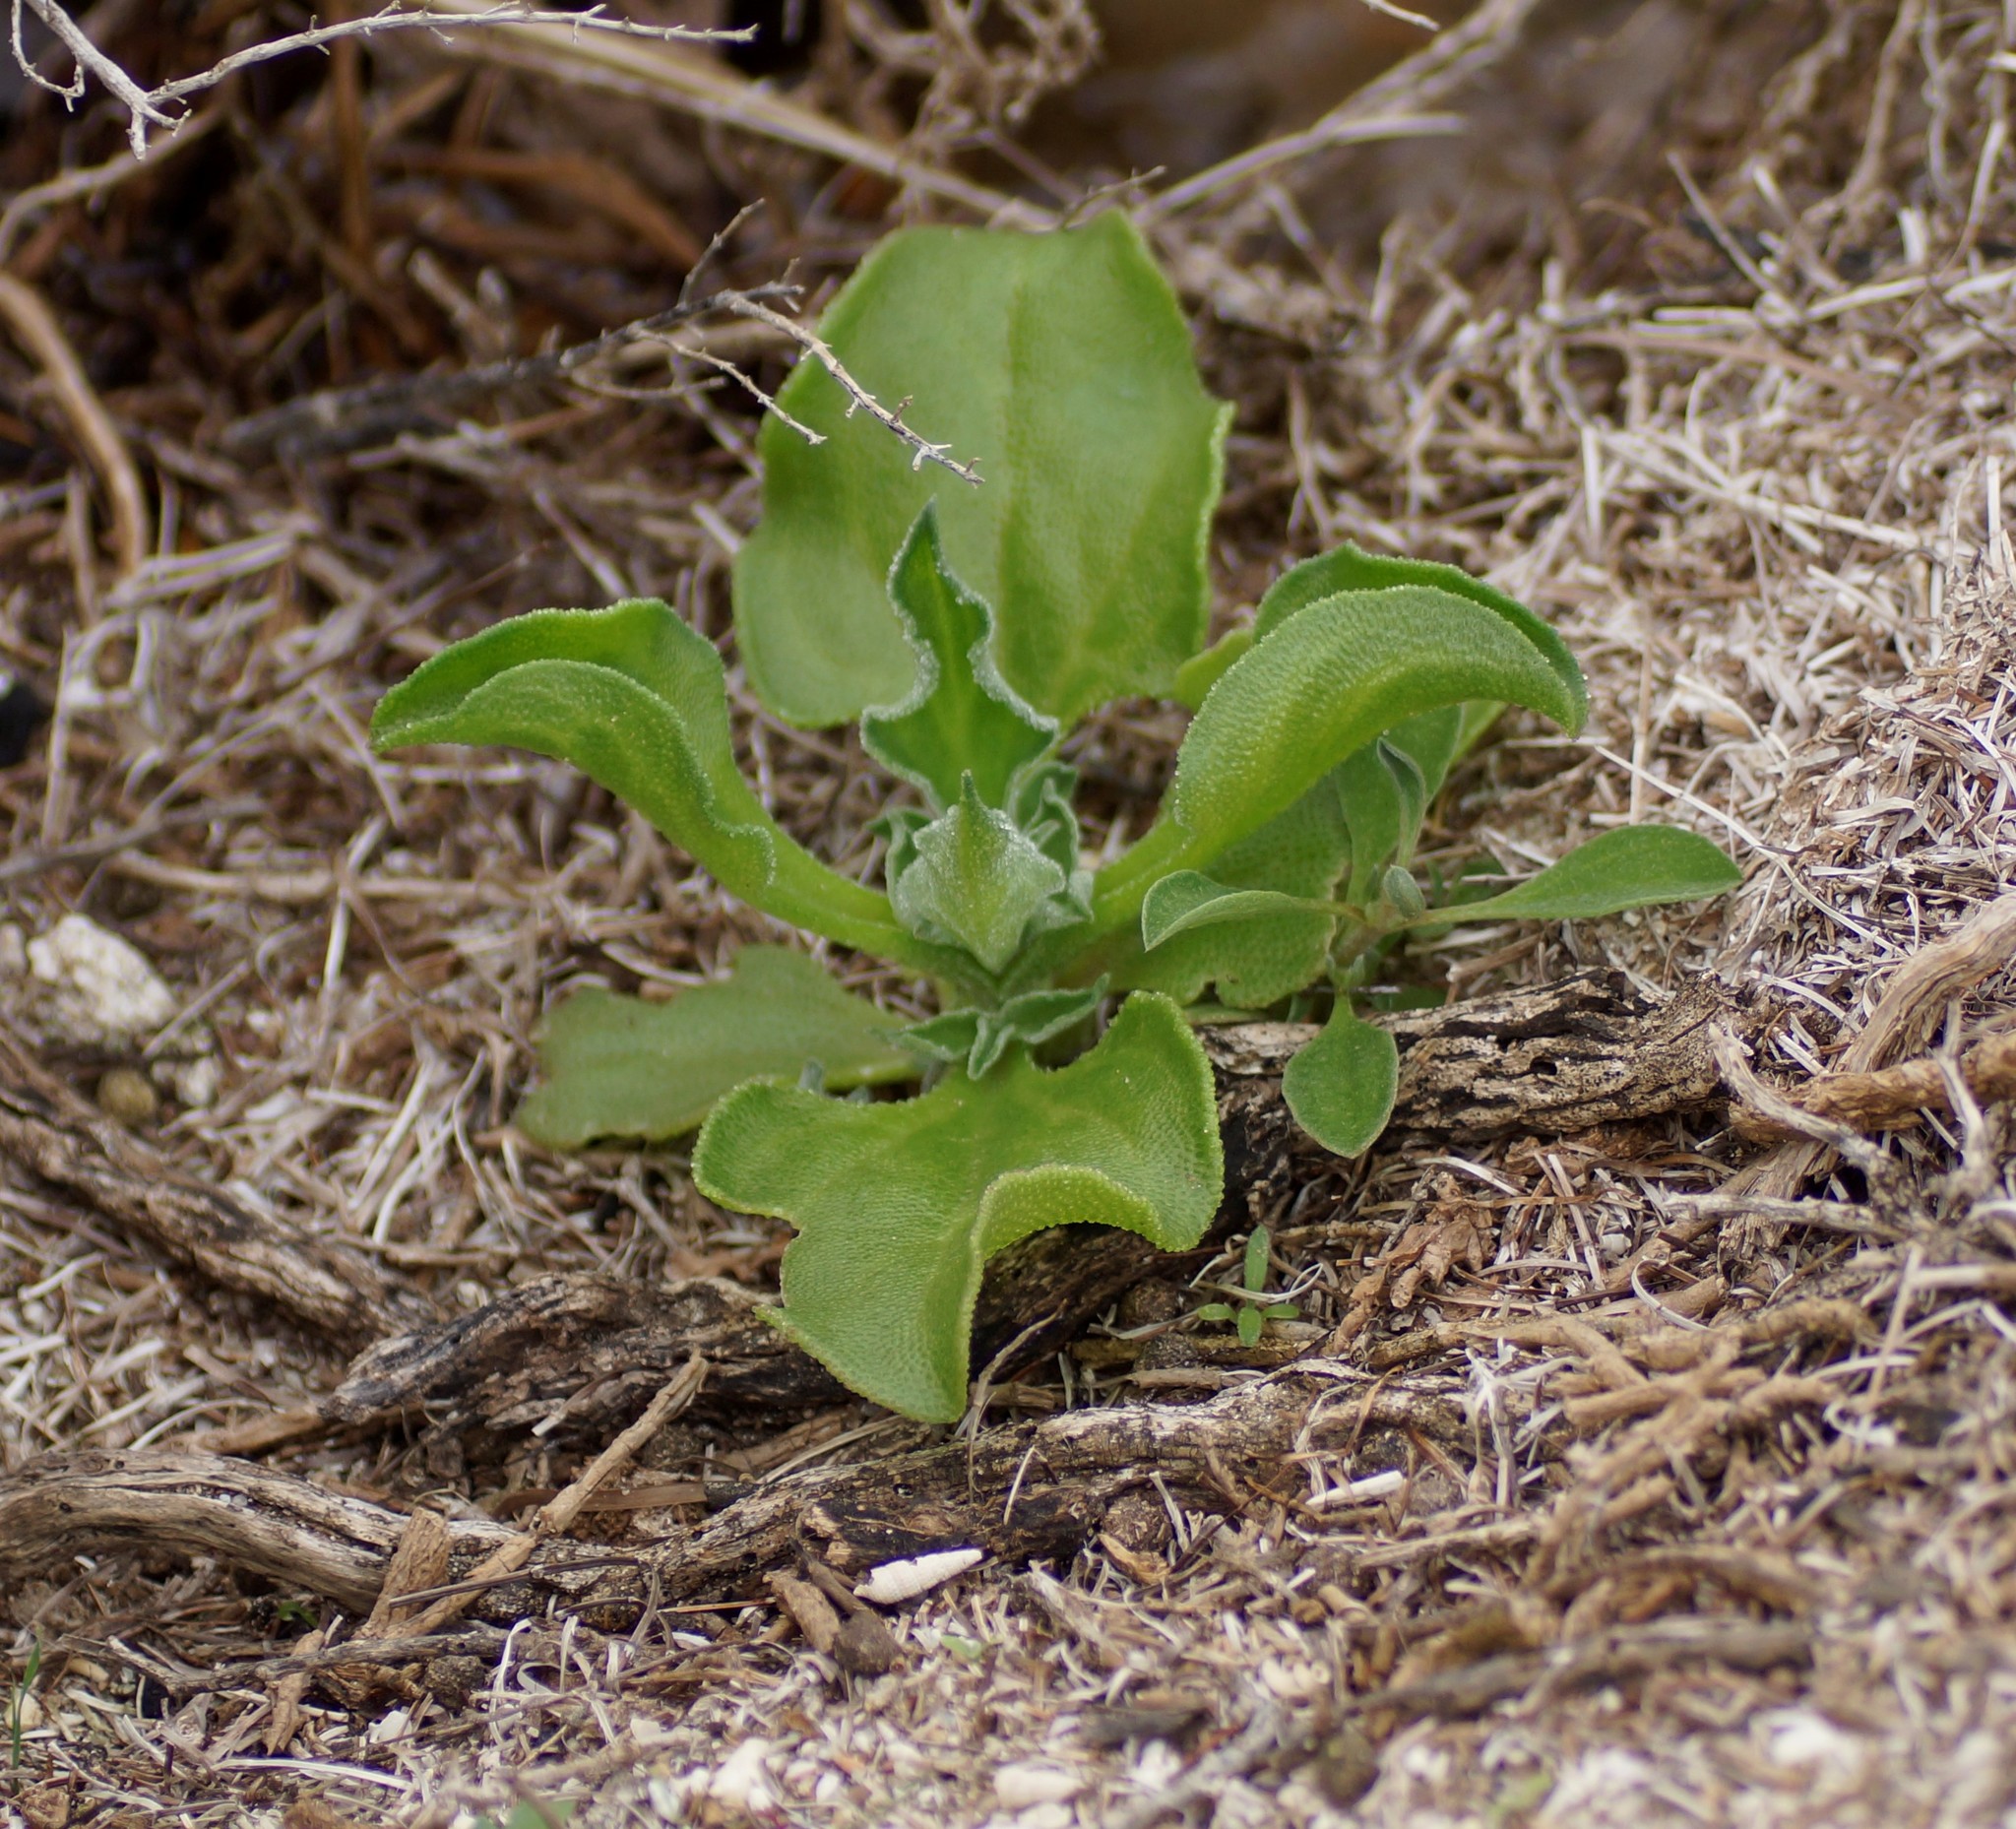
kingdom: Plantae
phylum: Tracheophyta
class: Magnoliopsida
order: Caryophyllales
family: Aizoaceae
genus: Mesembryanthemum
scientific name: Mesembryanthemum crystallinum
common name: Common iceplant
